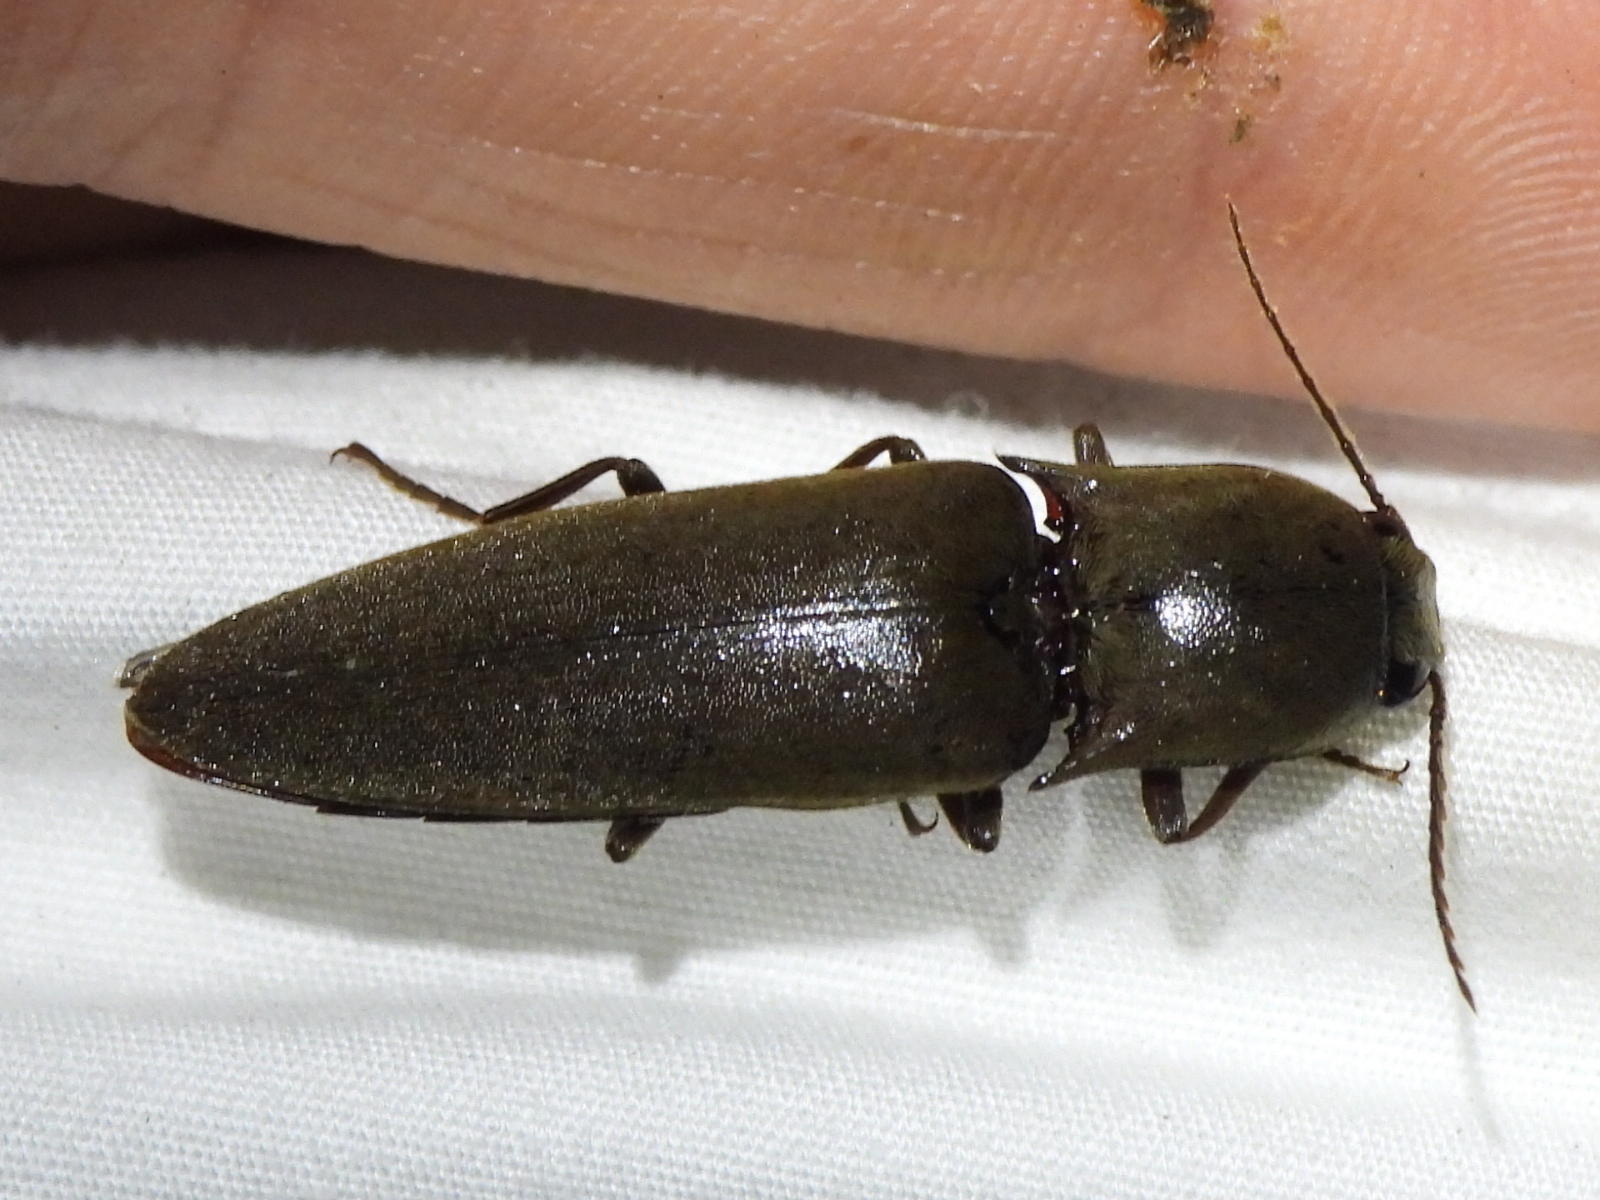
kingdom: Animalia
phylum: Arthropoda
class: Insecta
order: Coleoptera
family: Elateridae
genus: Orthostethus
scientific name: Orthostethus infuscatus
